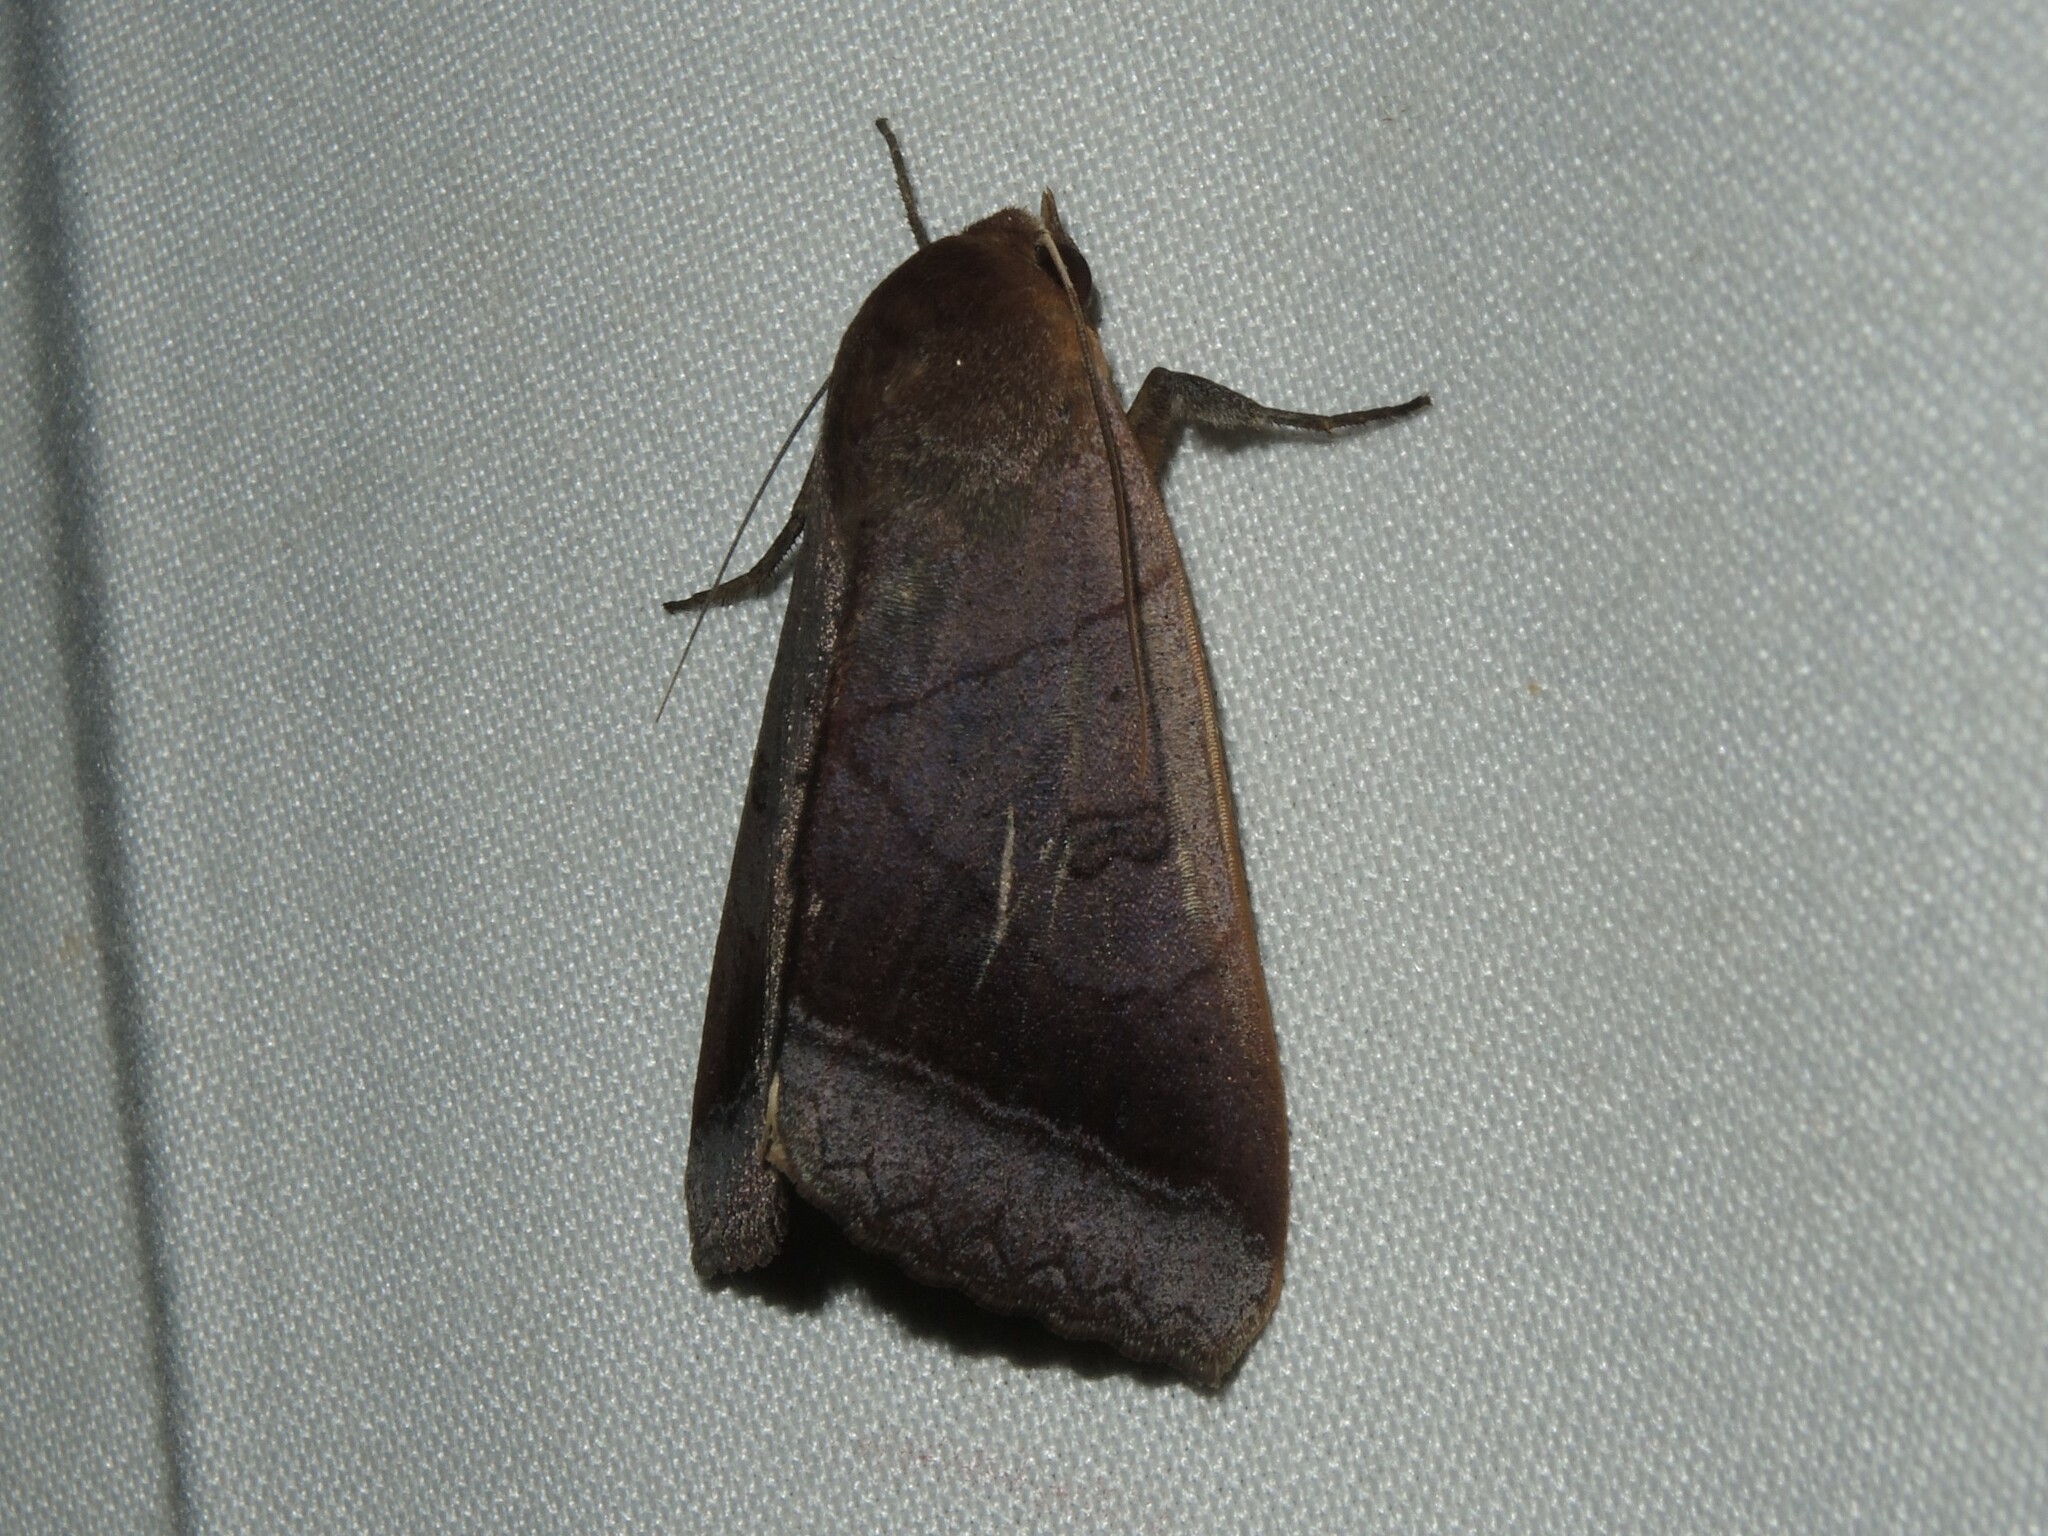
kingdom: Animalia
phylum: Arthropoda
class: Insecta
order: Lepidoptera
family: Erebidae
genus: Artena
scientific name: Artena dotata
